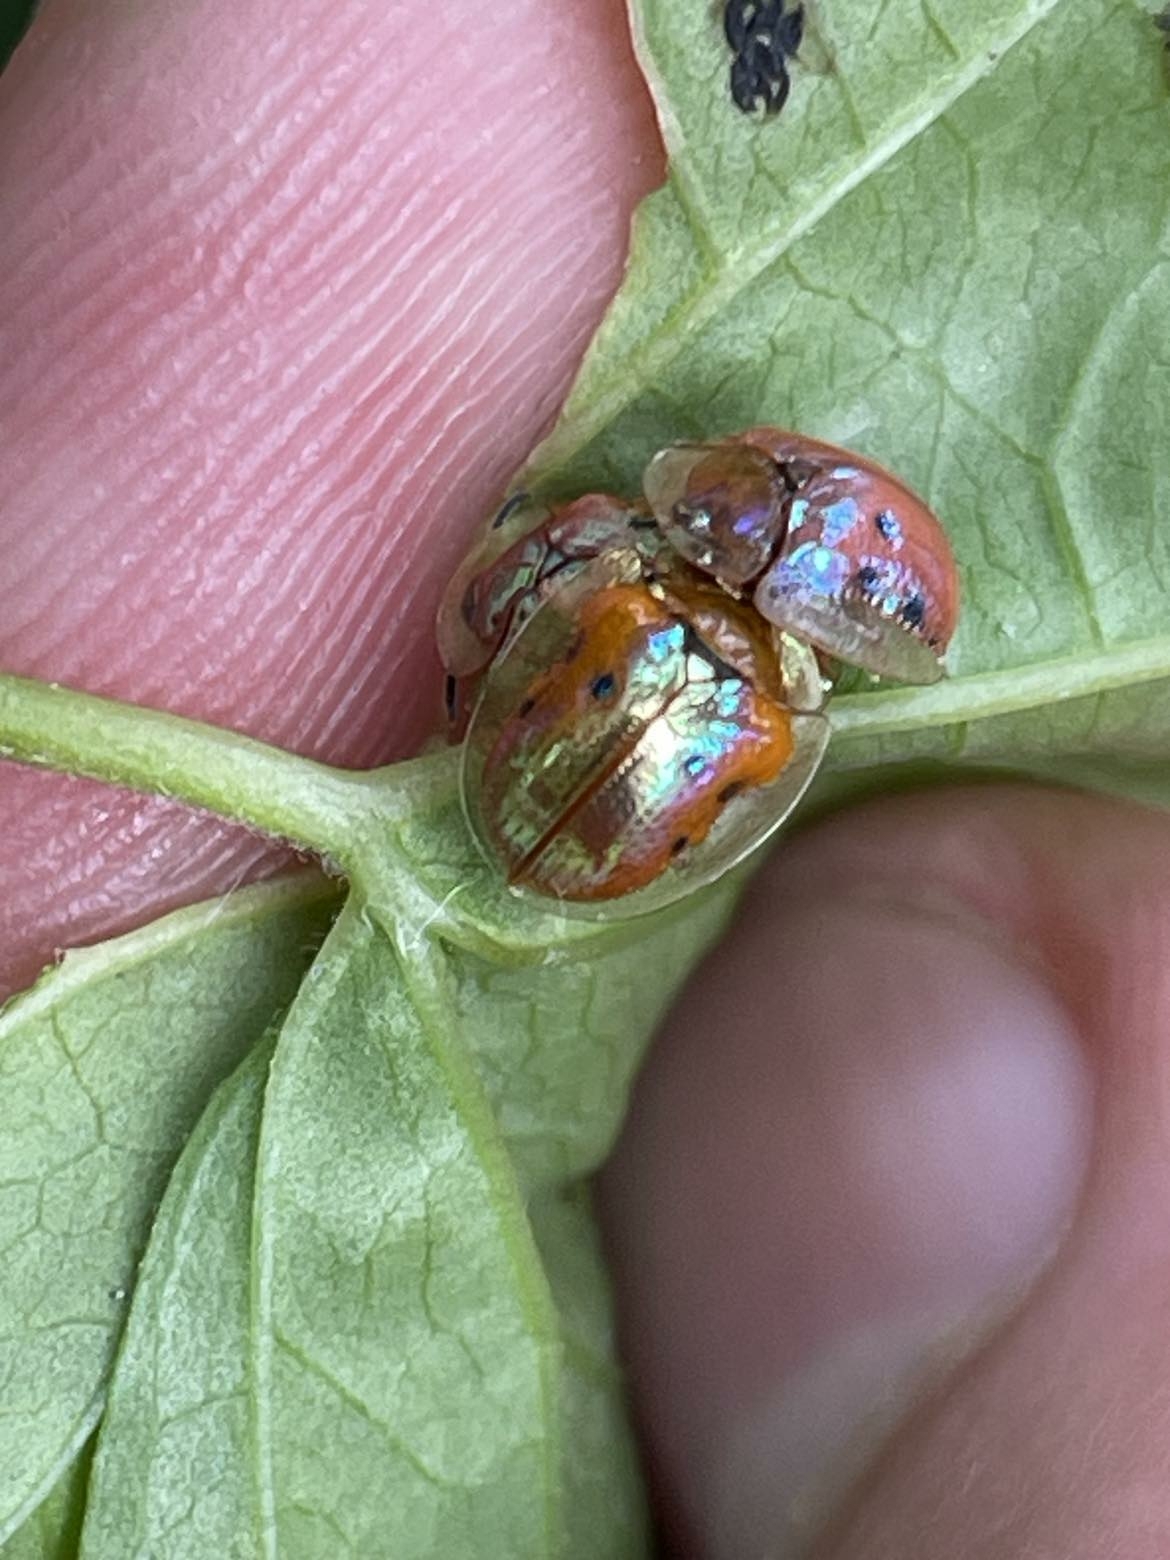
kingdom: Animalia
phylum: Arthropoda
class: Insecta
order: Coleoptera
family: Chrysomelidae
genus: Charidotella
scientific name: Charidotella sexpunctata
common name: Golden tortoise beetle
